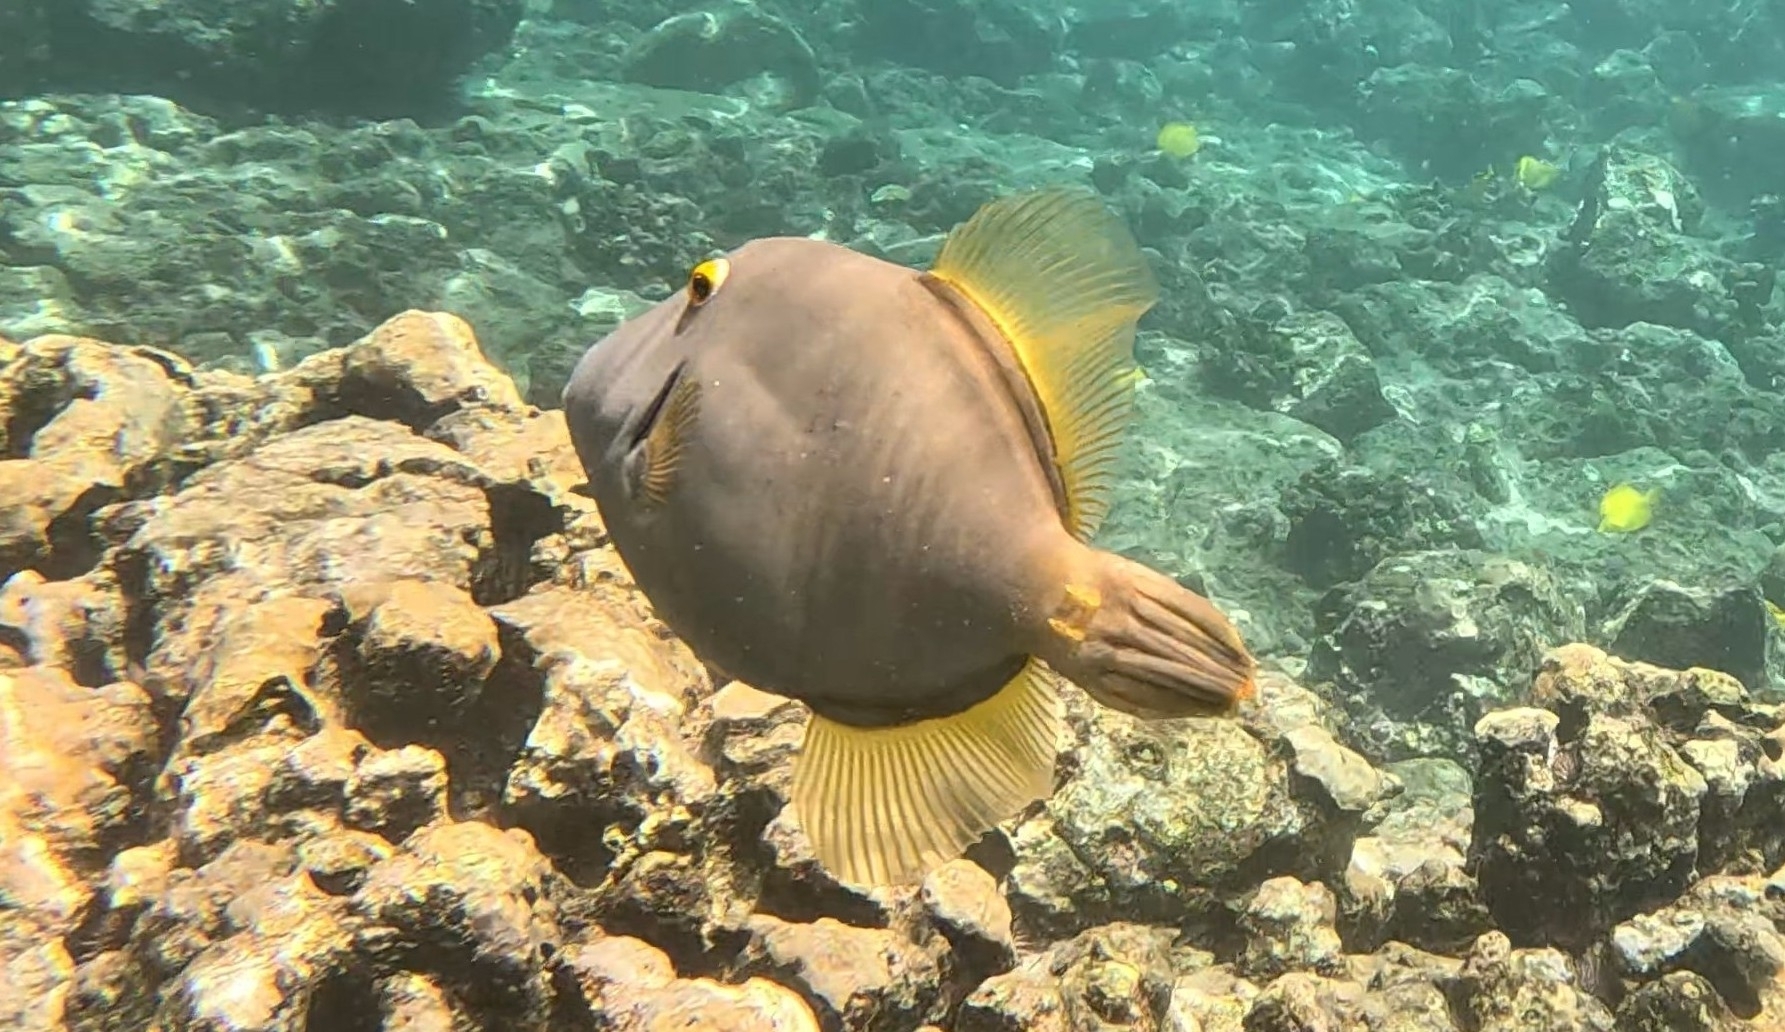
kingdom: Animalia
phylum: Chordata
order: Tetraodontiformes
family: Monacanthidae
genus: Cantherhines
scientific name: Cantherhines dumerilii
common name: Barred filefish
